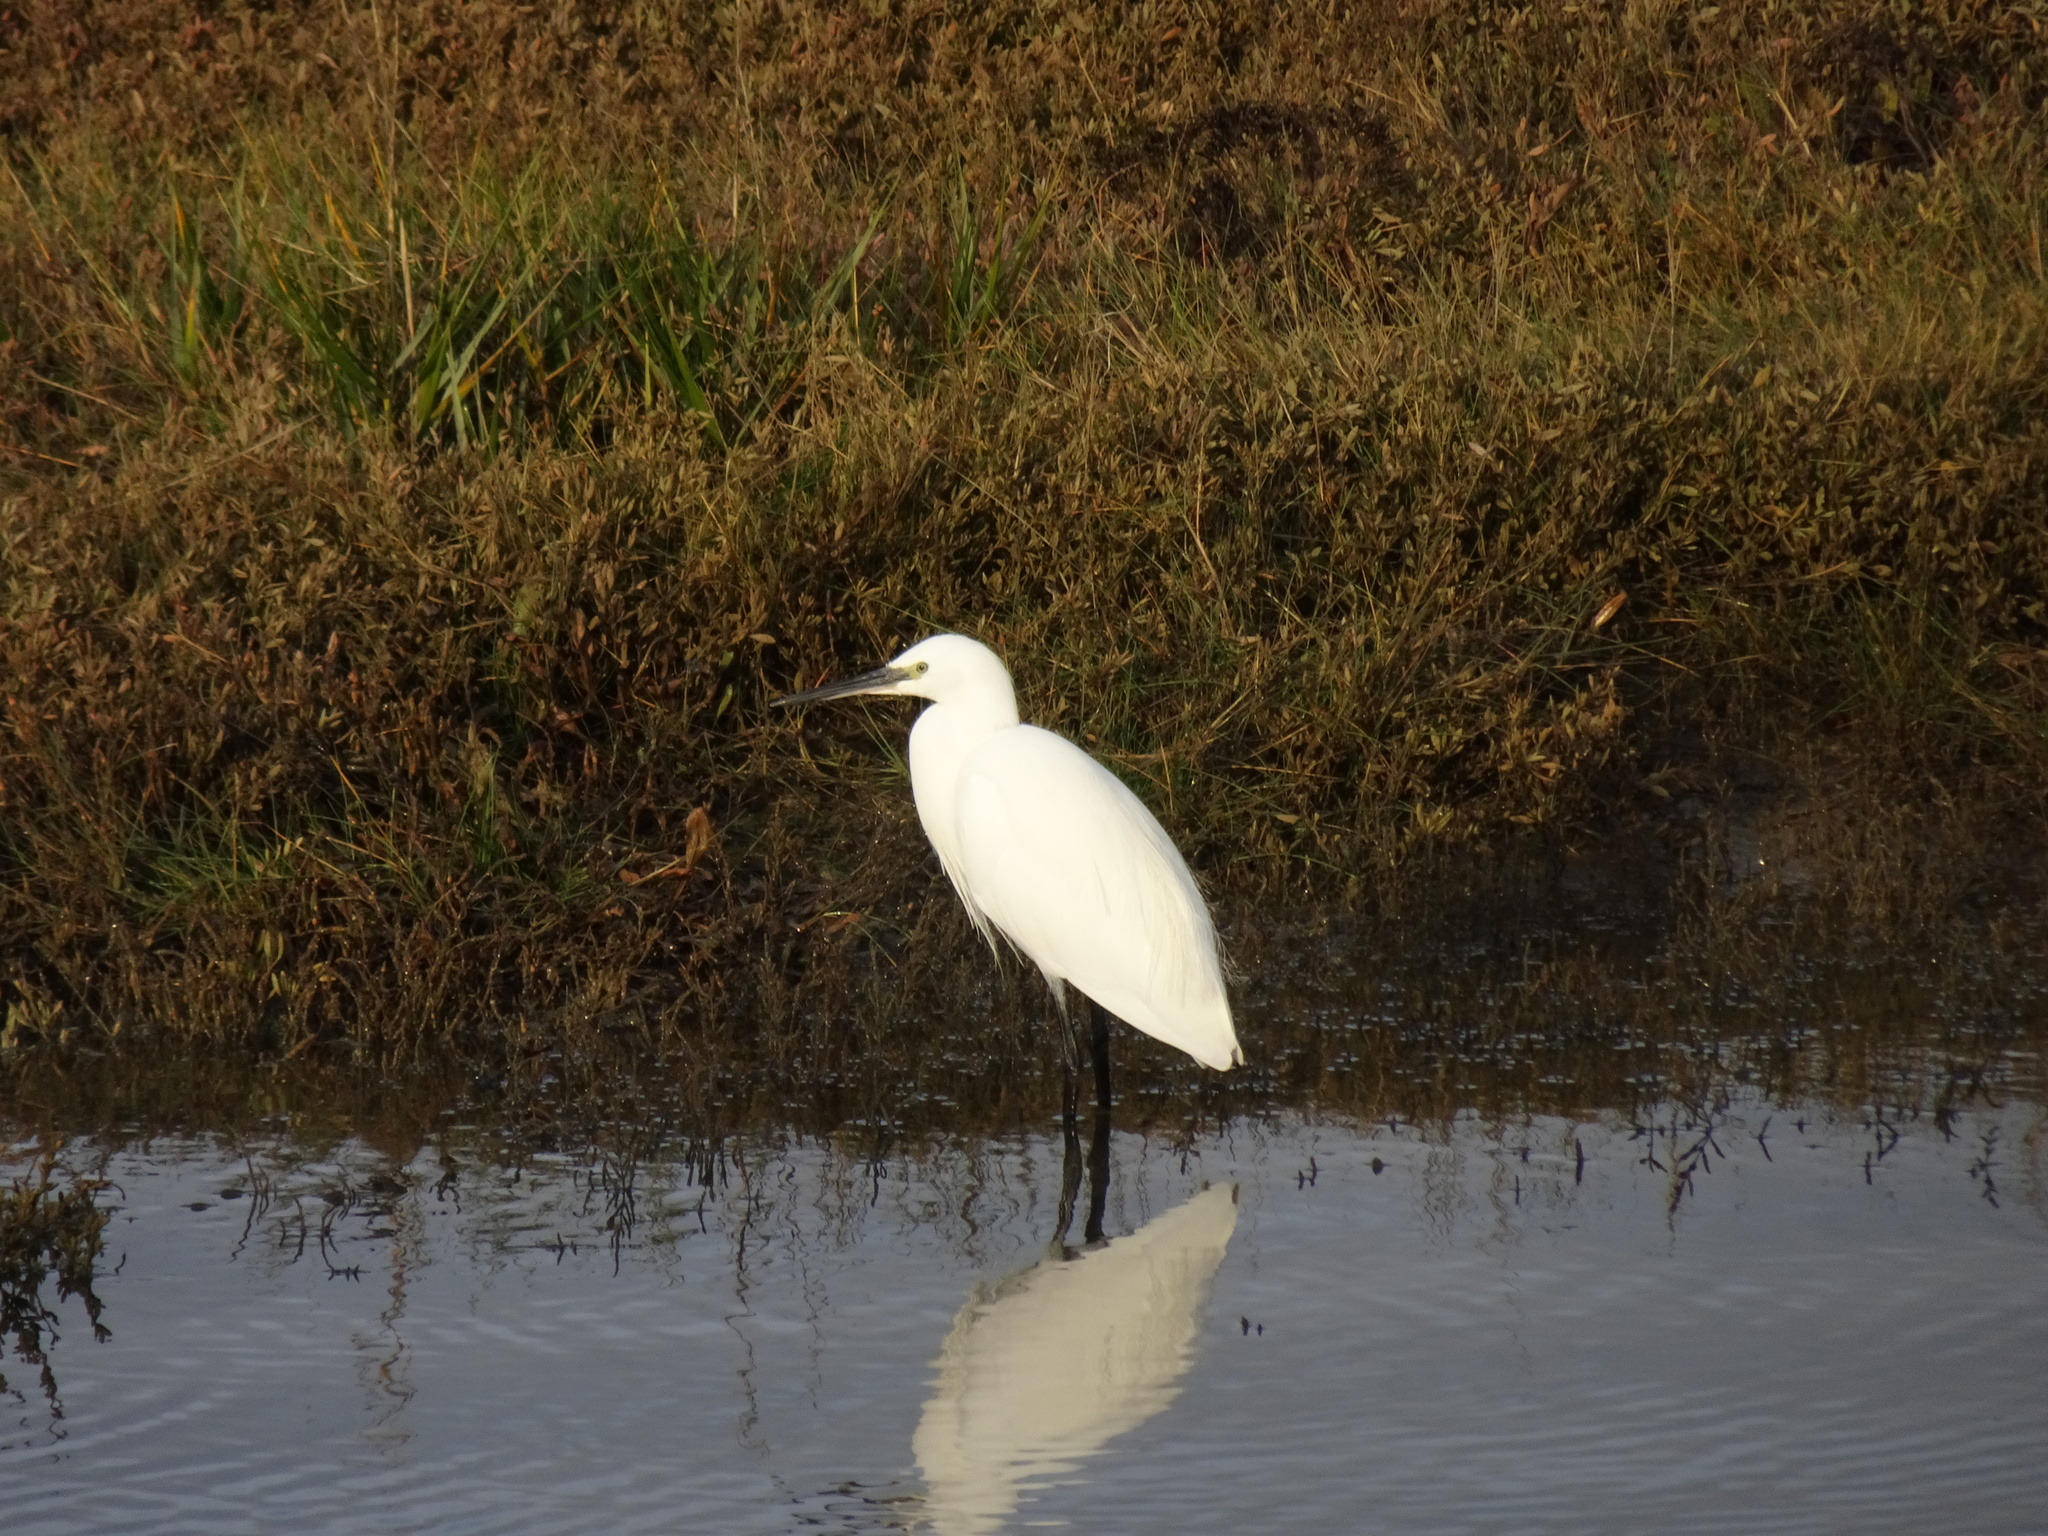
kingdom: Animalia
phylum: Chordata
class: Aves
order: Pelecaniformes
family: Ardeidae
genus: Egretta
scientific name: Egretta garzetta
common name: Little egret
